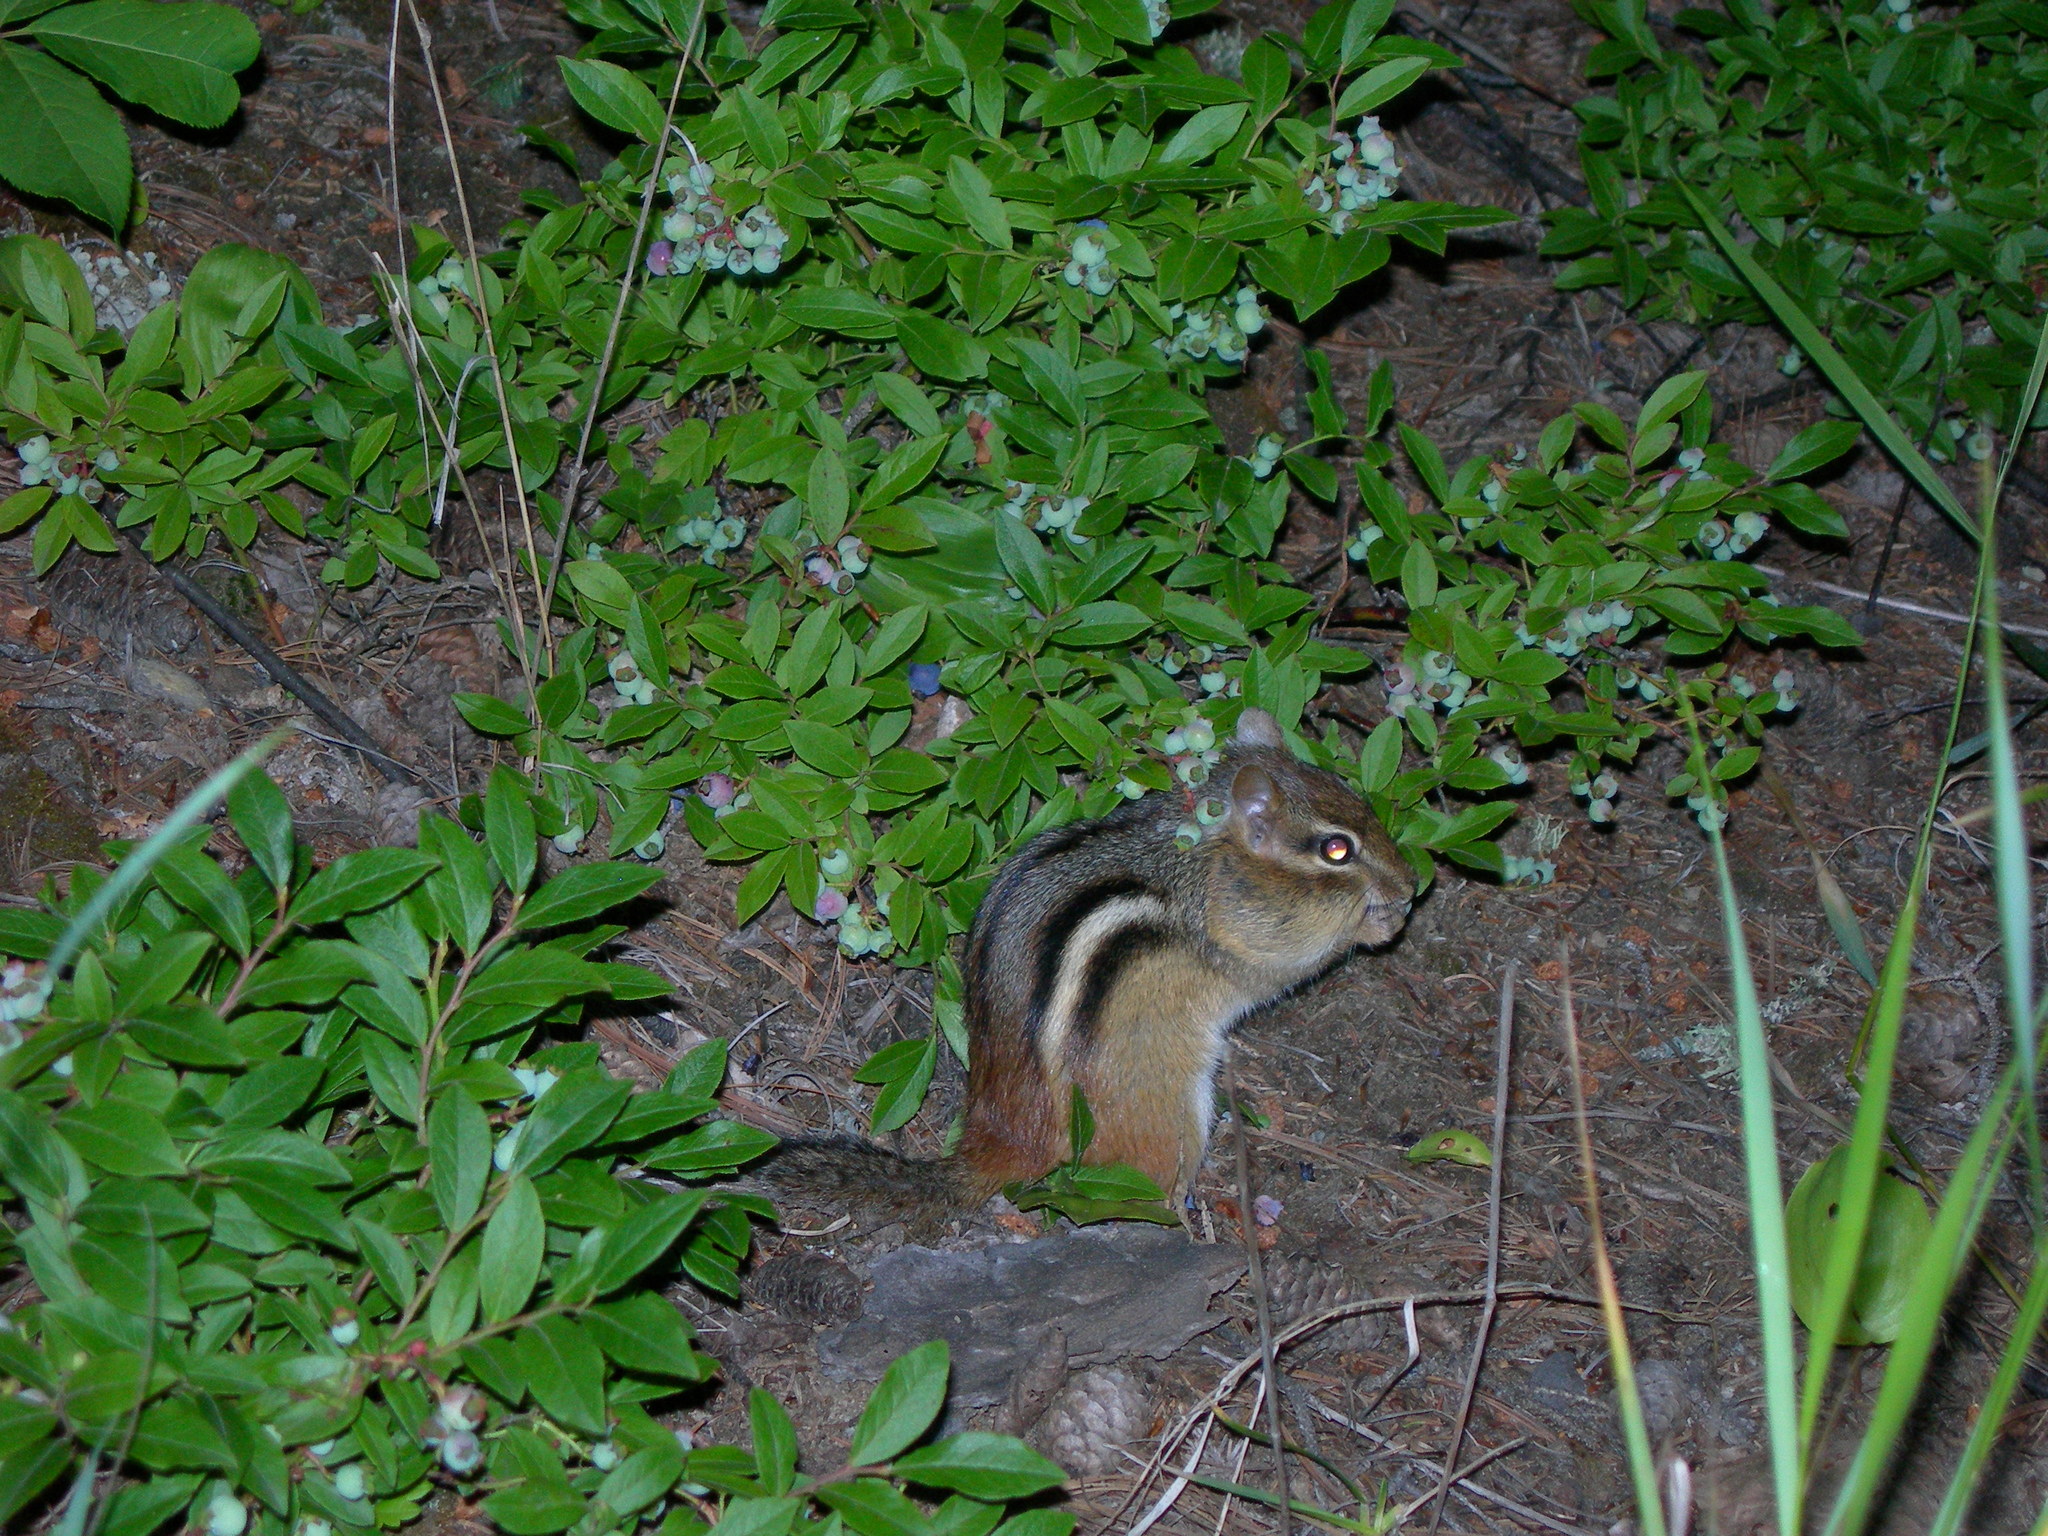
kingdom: Animalia
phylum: Chordata
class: Mammalia
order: Rodentia
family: Sciuridae
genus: Tamias
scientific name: Tamias striatus
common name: Eastern chipmunk
